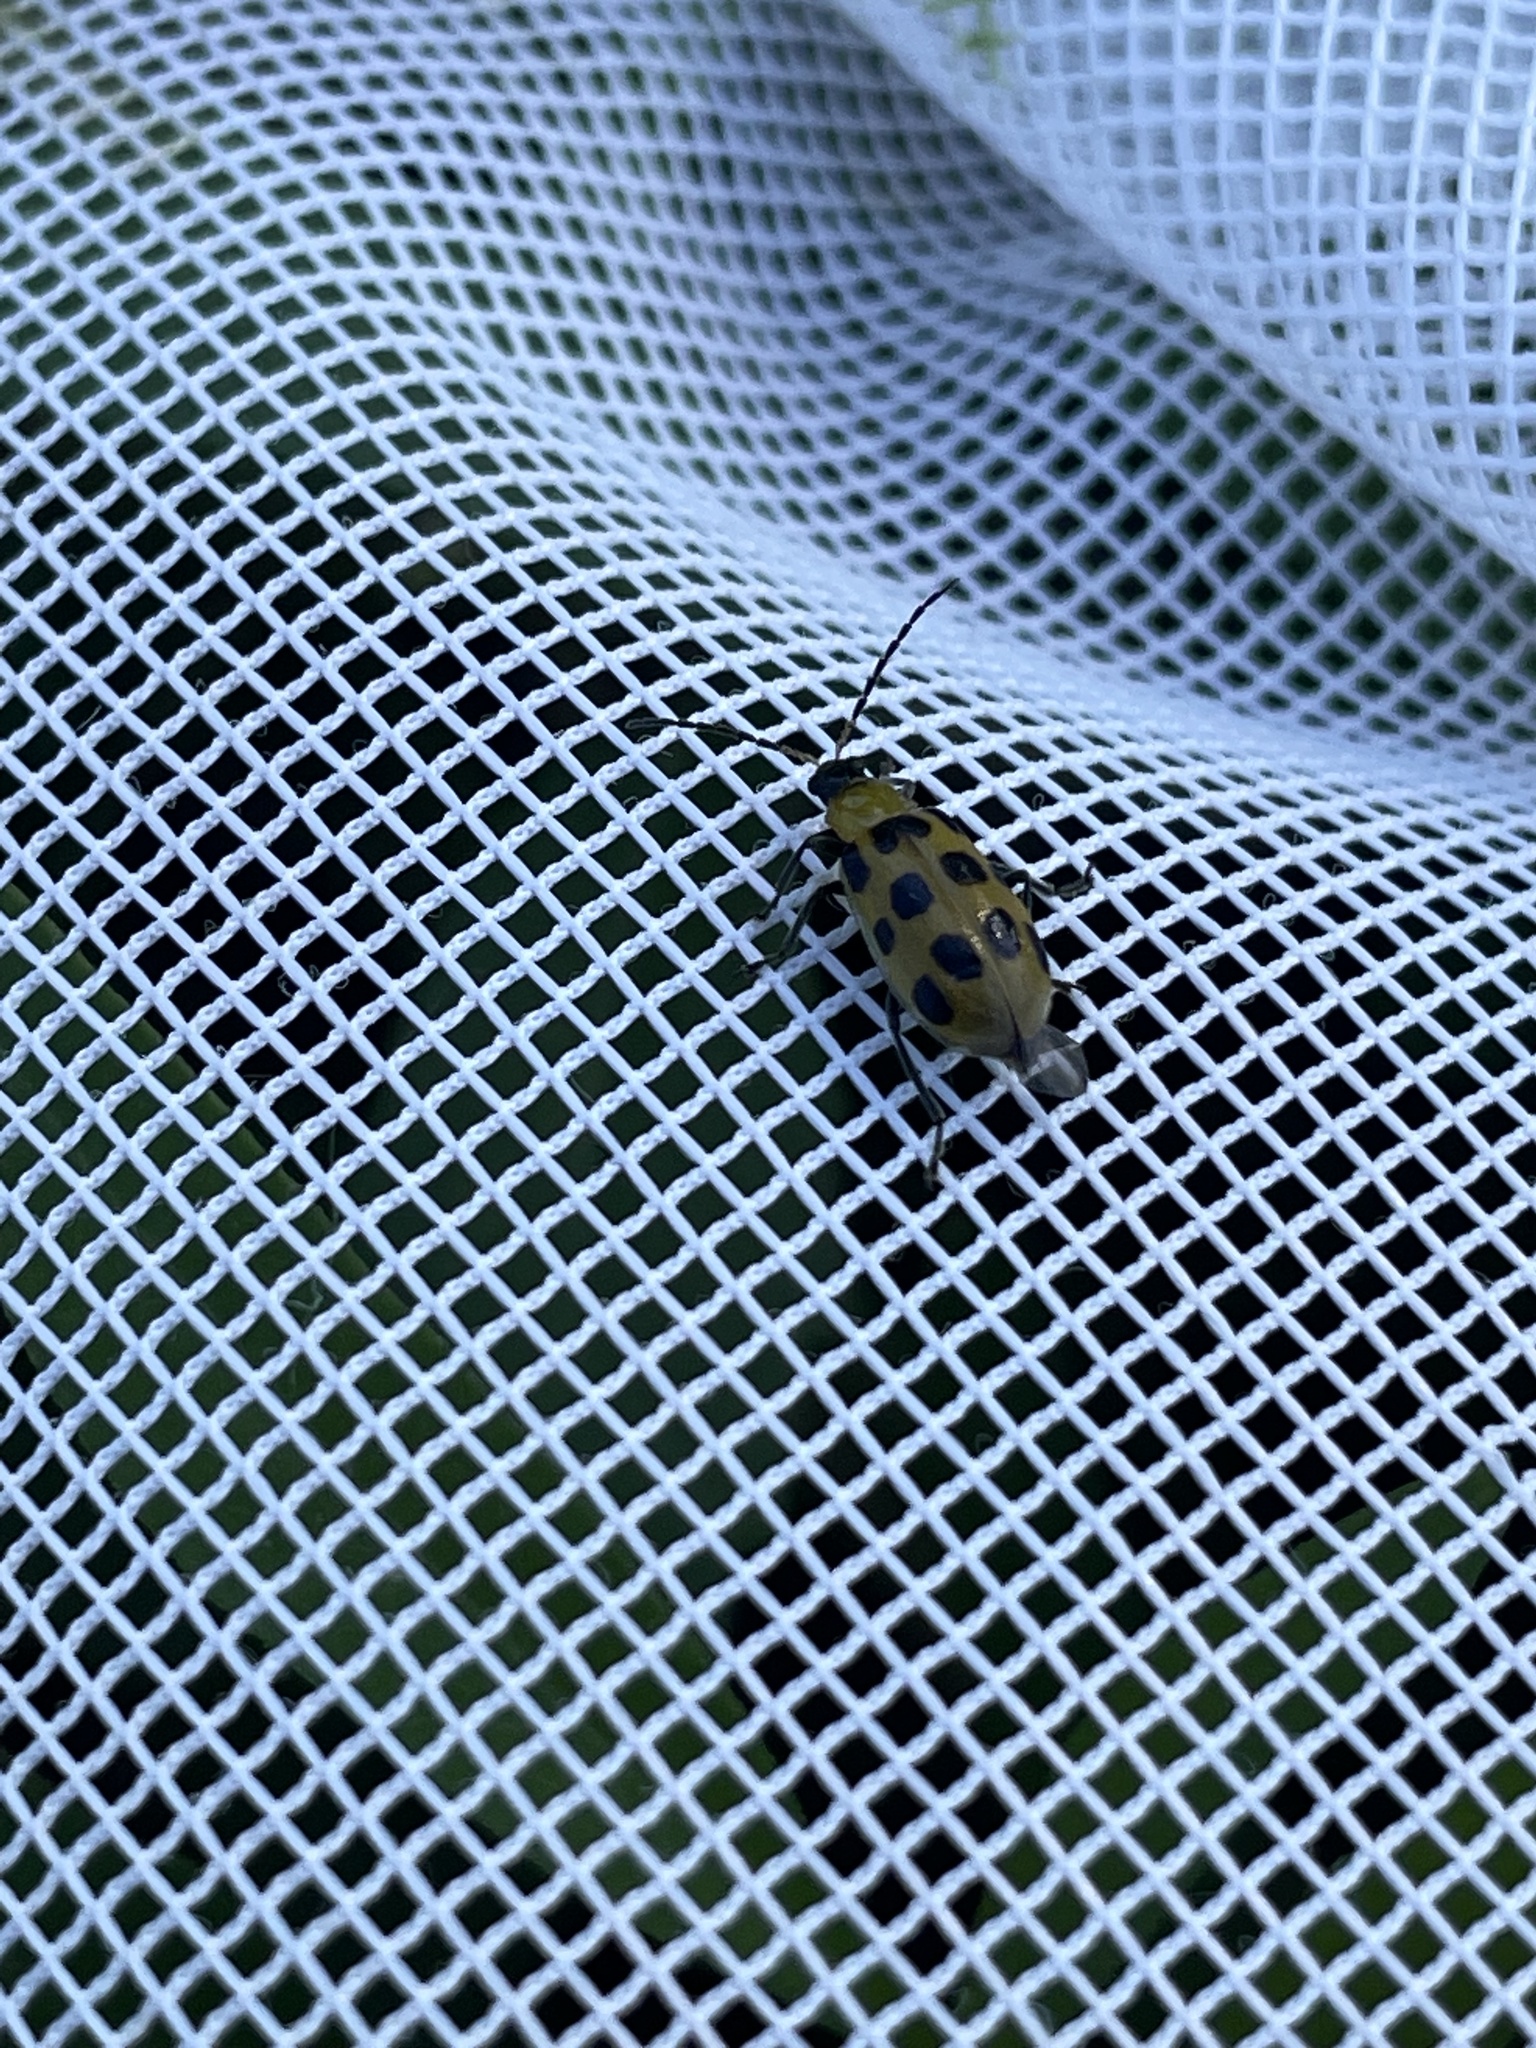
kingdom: Animalia
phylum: Arthropoda
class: Insecta
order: Coleoptera
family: Chrysomelidae
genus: Diabrotica
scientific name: Diabrotica undecimpunctata
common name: Spotted cucumber beetle
